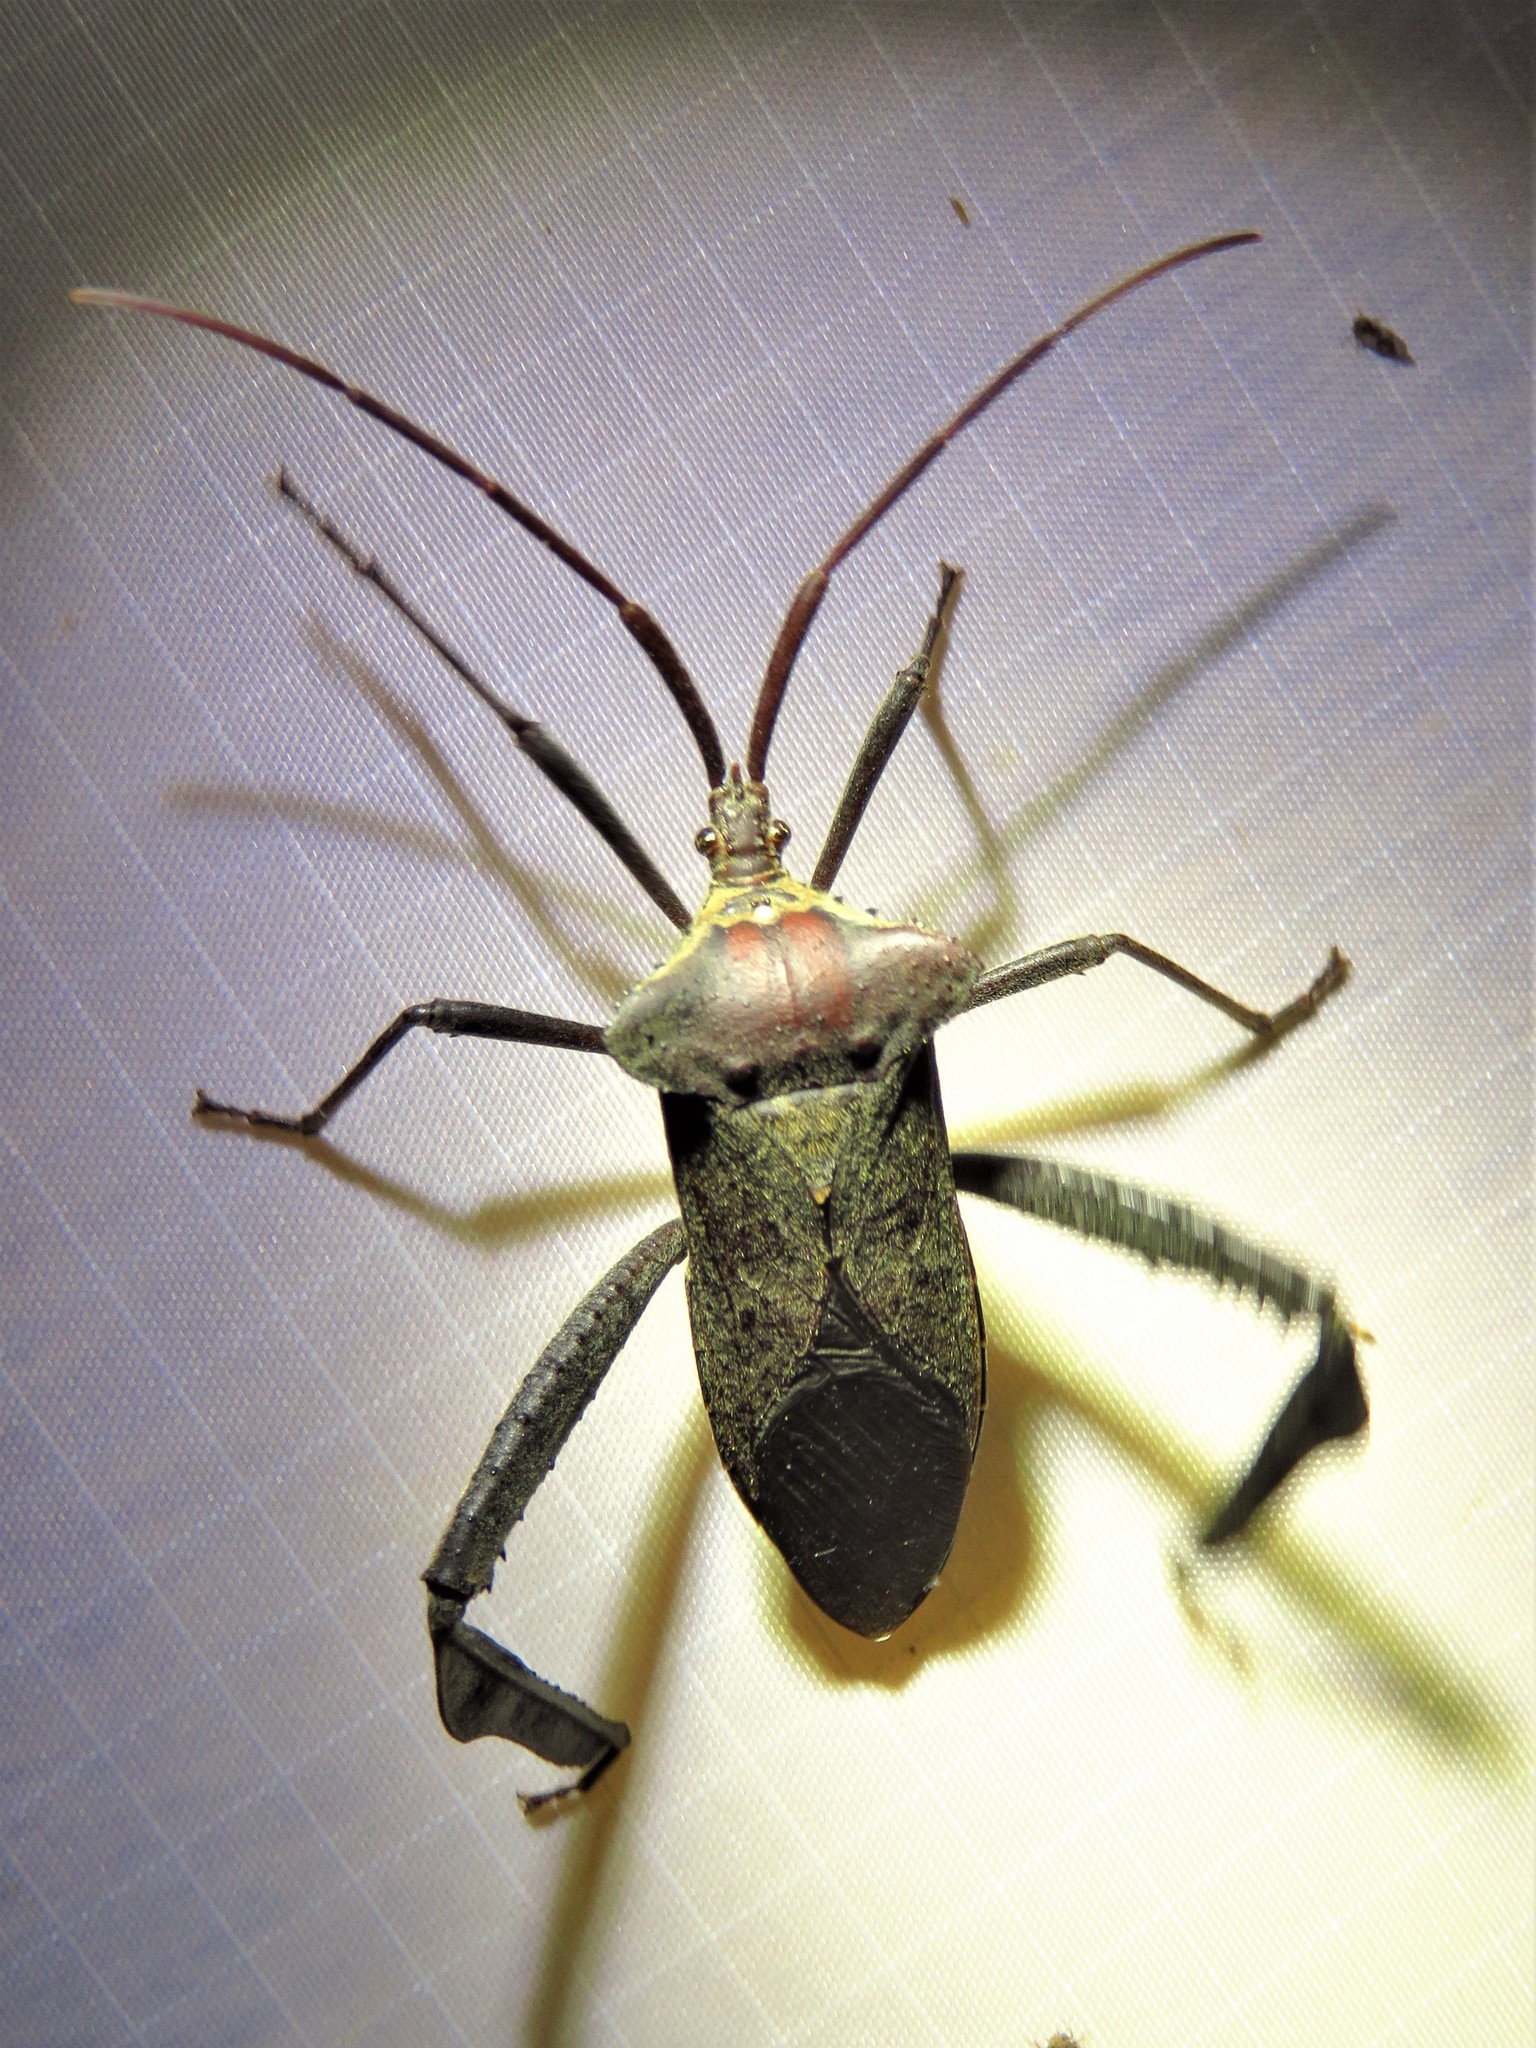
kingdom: Animalia
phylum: Arthropoda
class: Insecta
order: Hemiptera
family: Coreidae
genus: Acanthocephala
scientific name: Acanthocephala declivis
